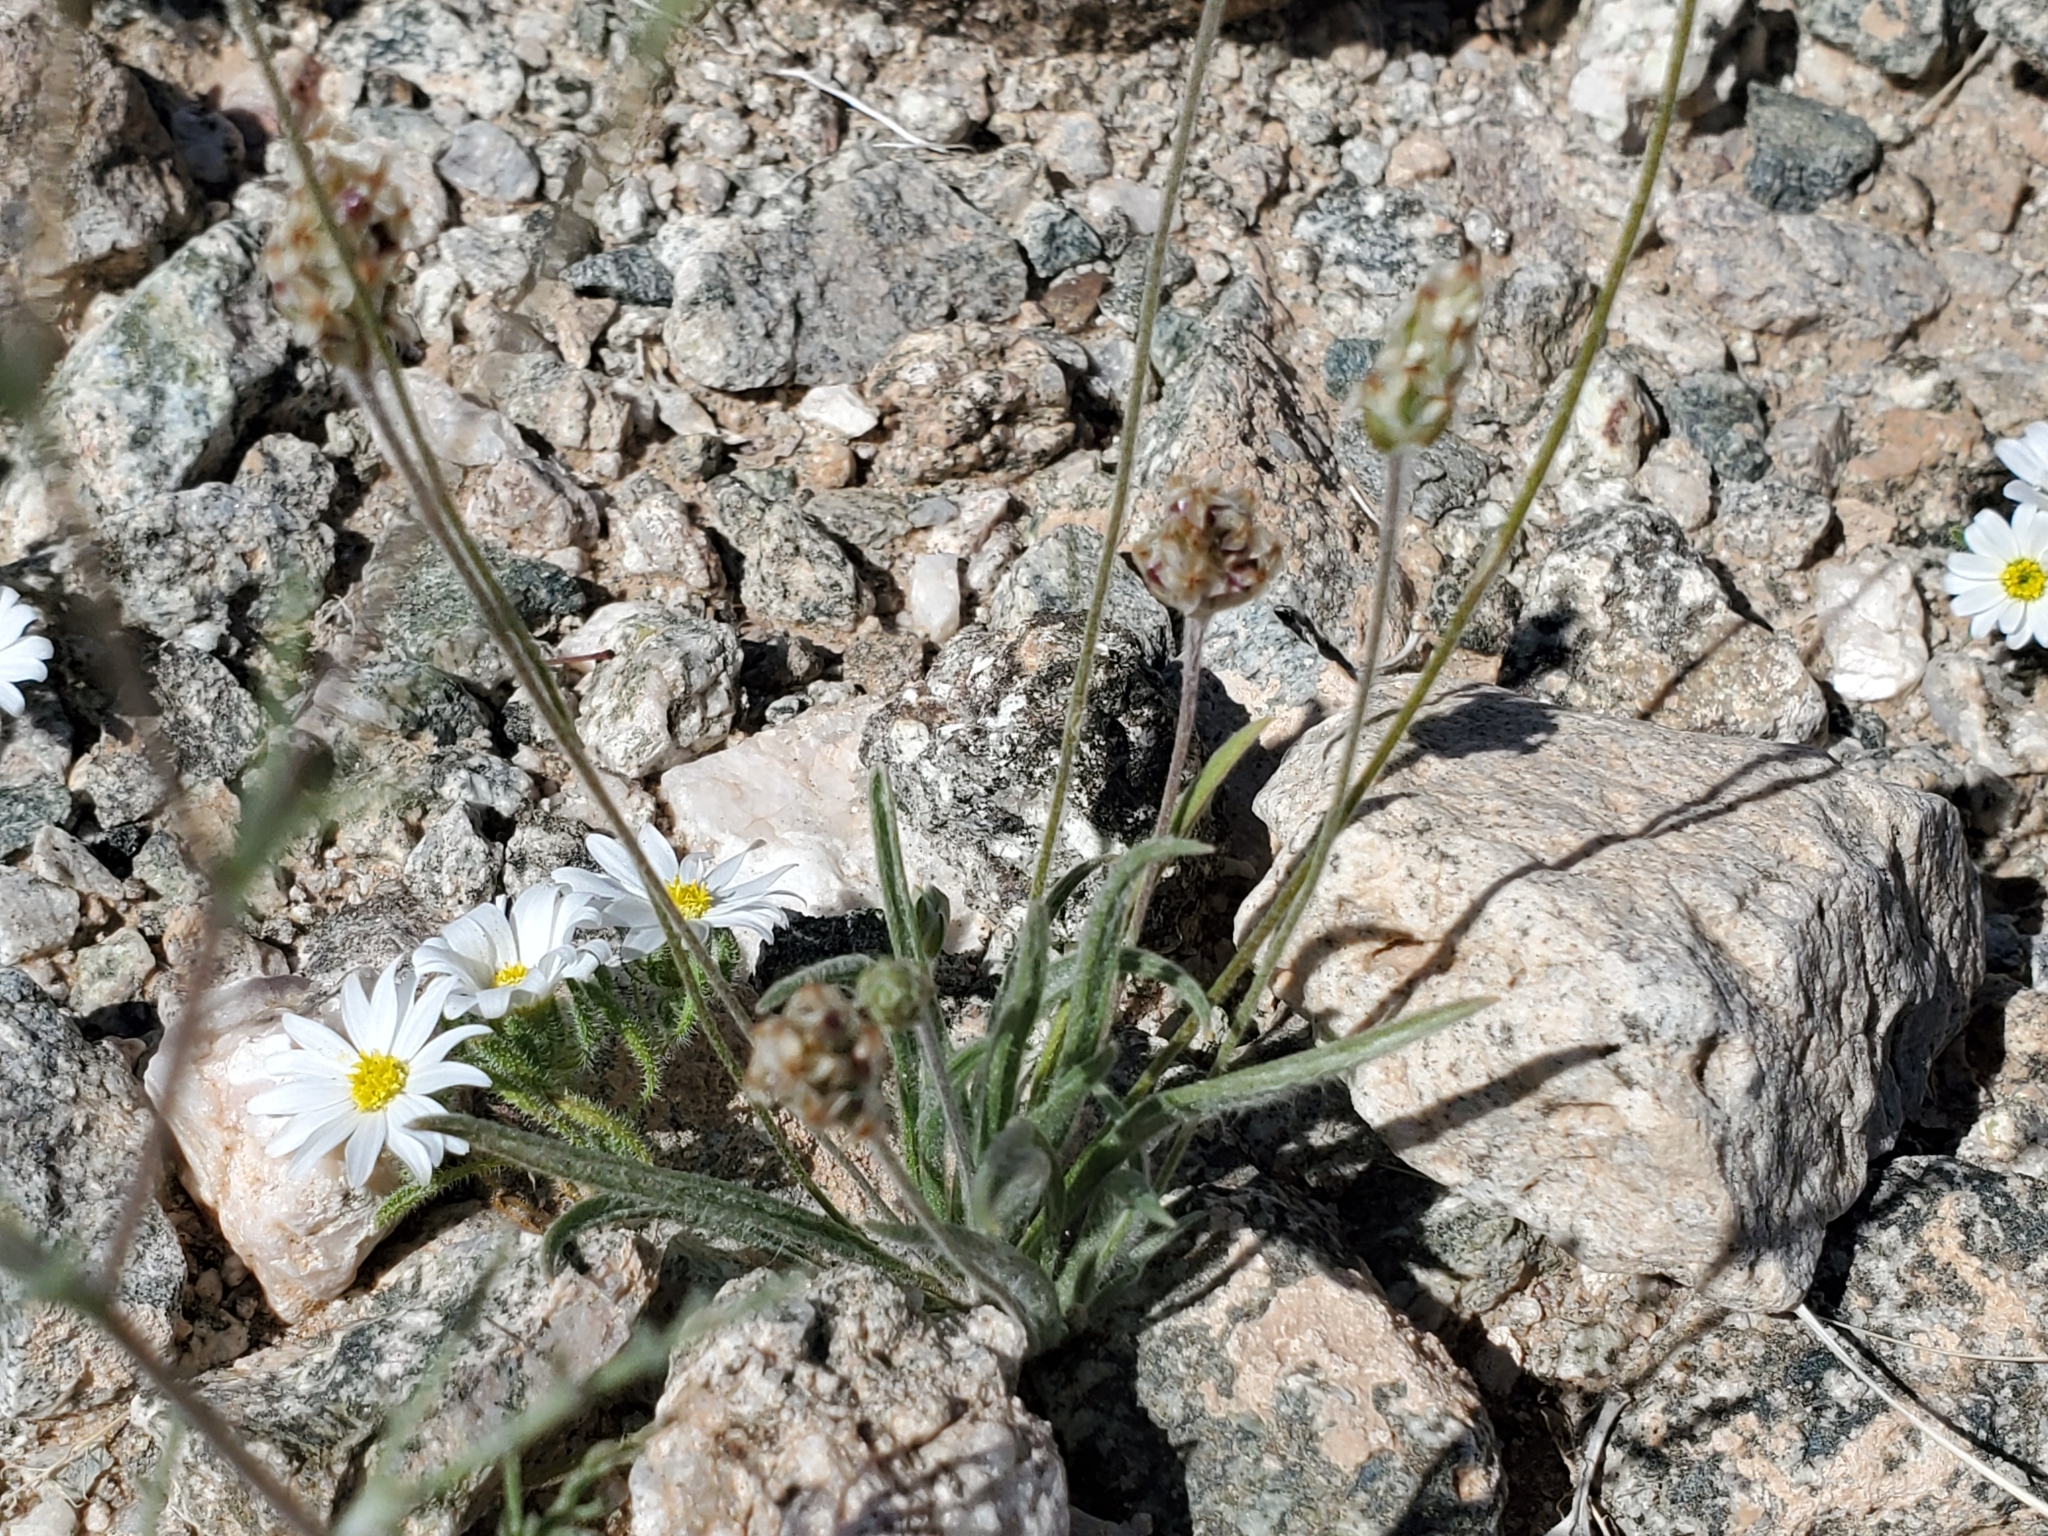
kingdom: Plantae
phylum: Tracheophyta
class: Magnoliopsida
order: Lamiales
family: Plantaginaceae
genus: Plantago
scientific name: Plantago ovata
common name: Blond plantain
